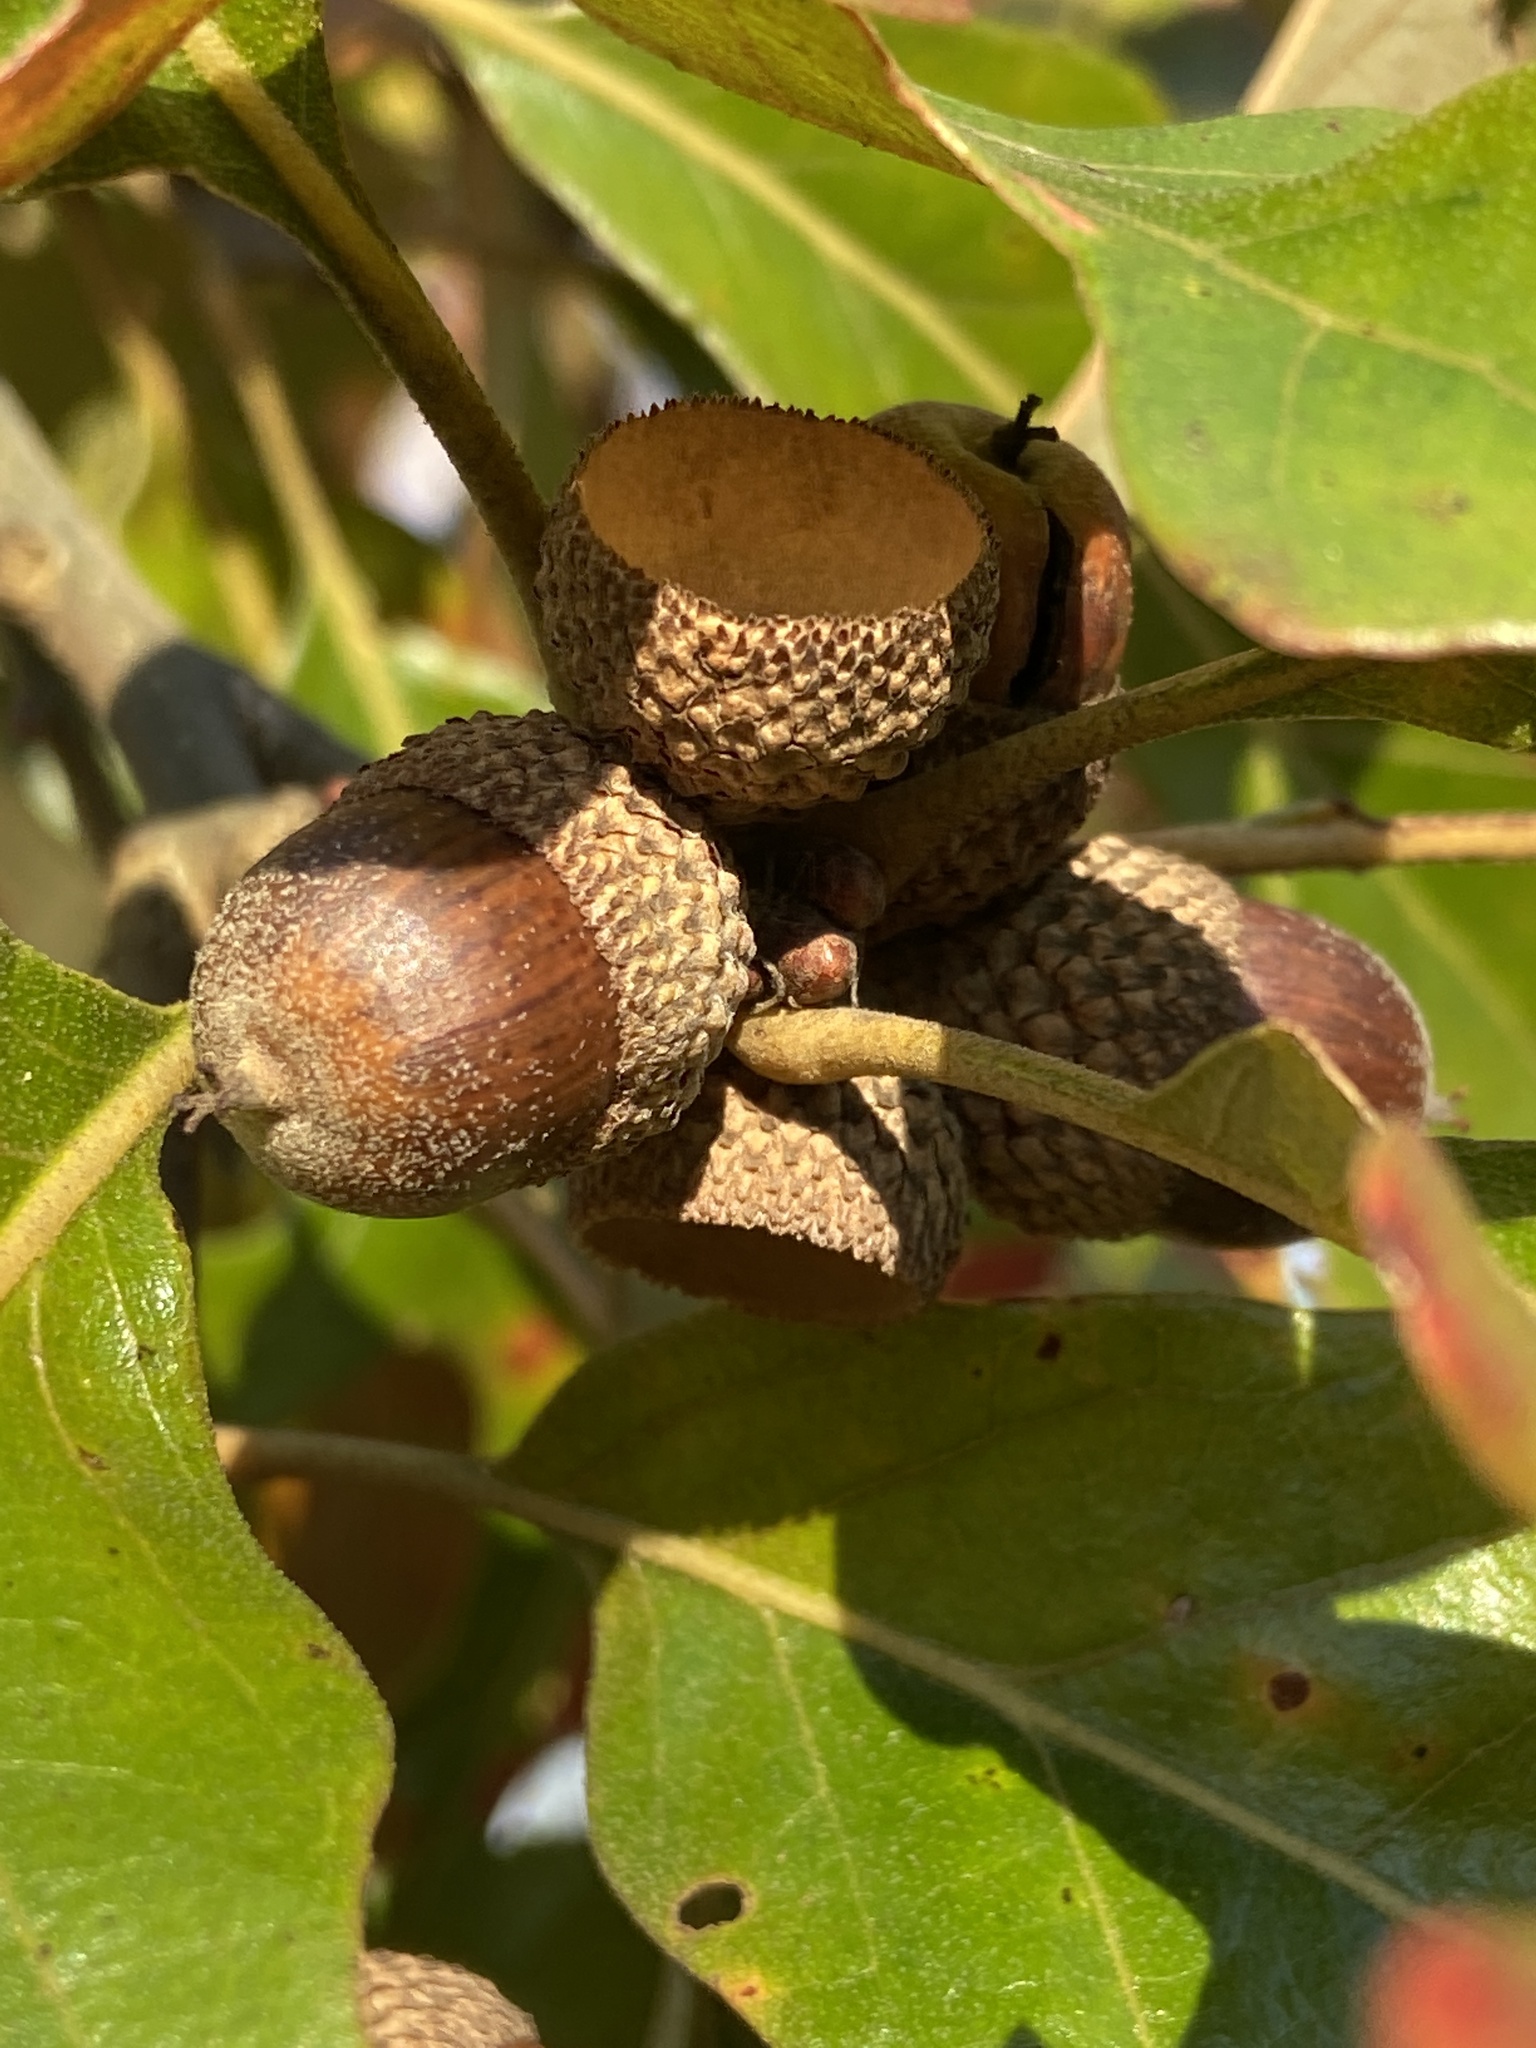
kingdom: Plantae
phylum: Tracheophyta
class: Magnoliopsida
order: Fagales
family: Fagaceae
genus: Quercus
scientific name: Quercus stellata
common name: Post oak
